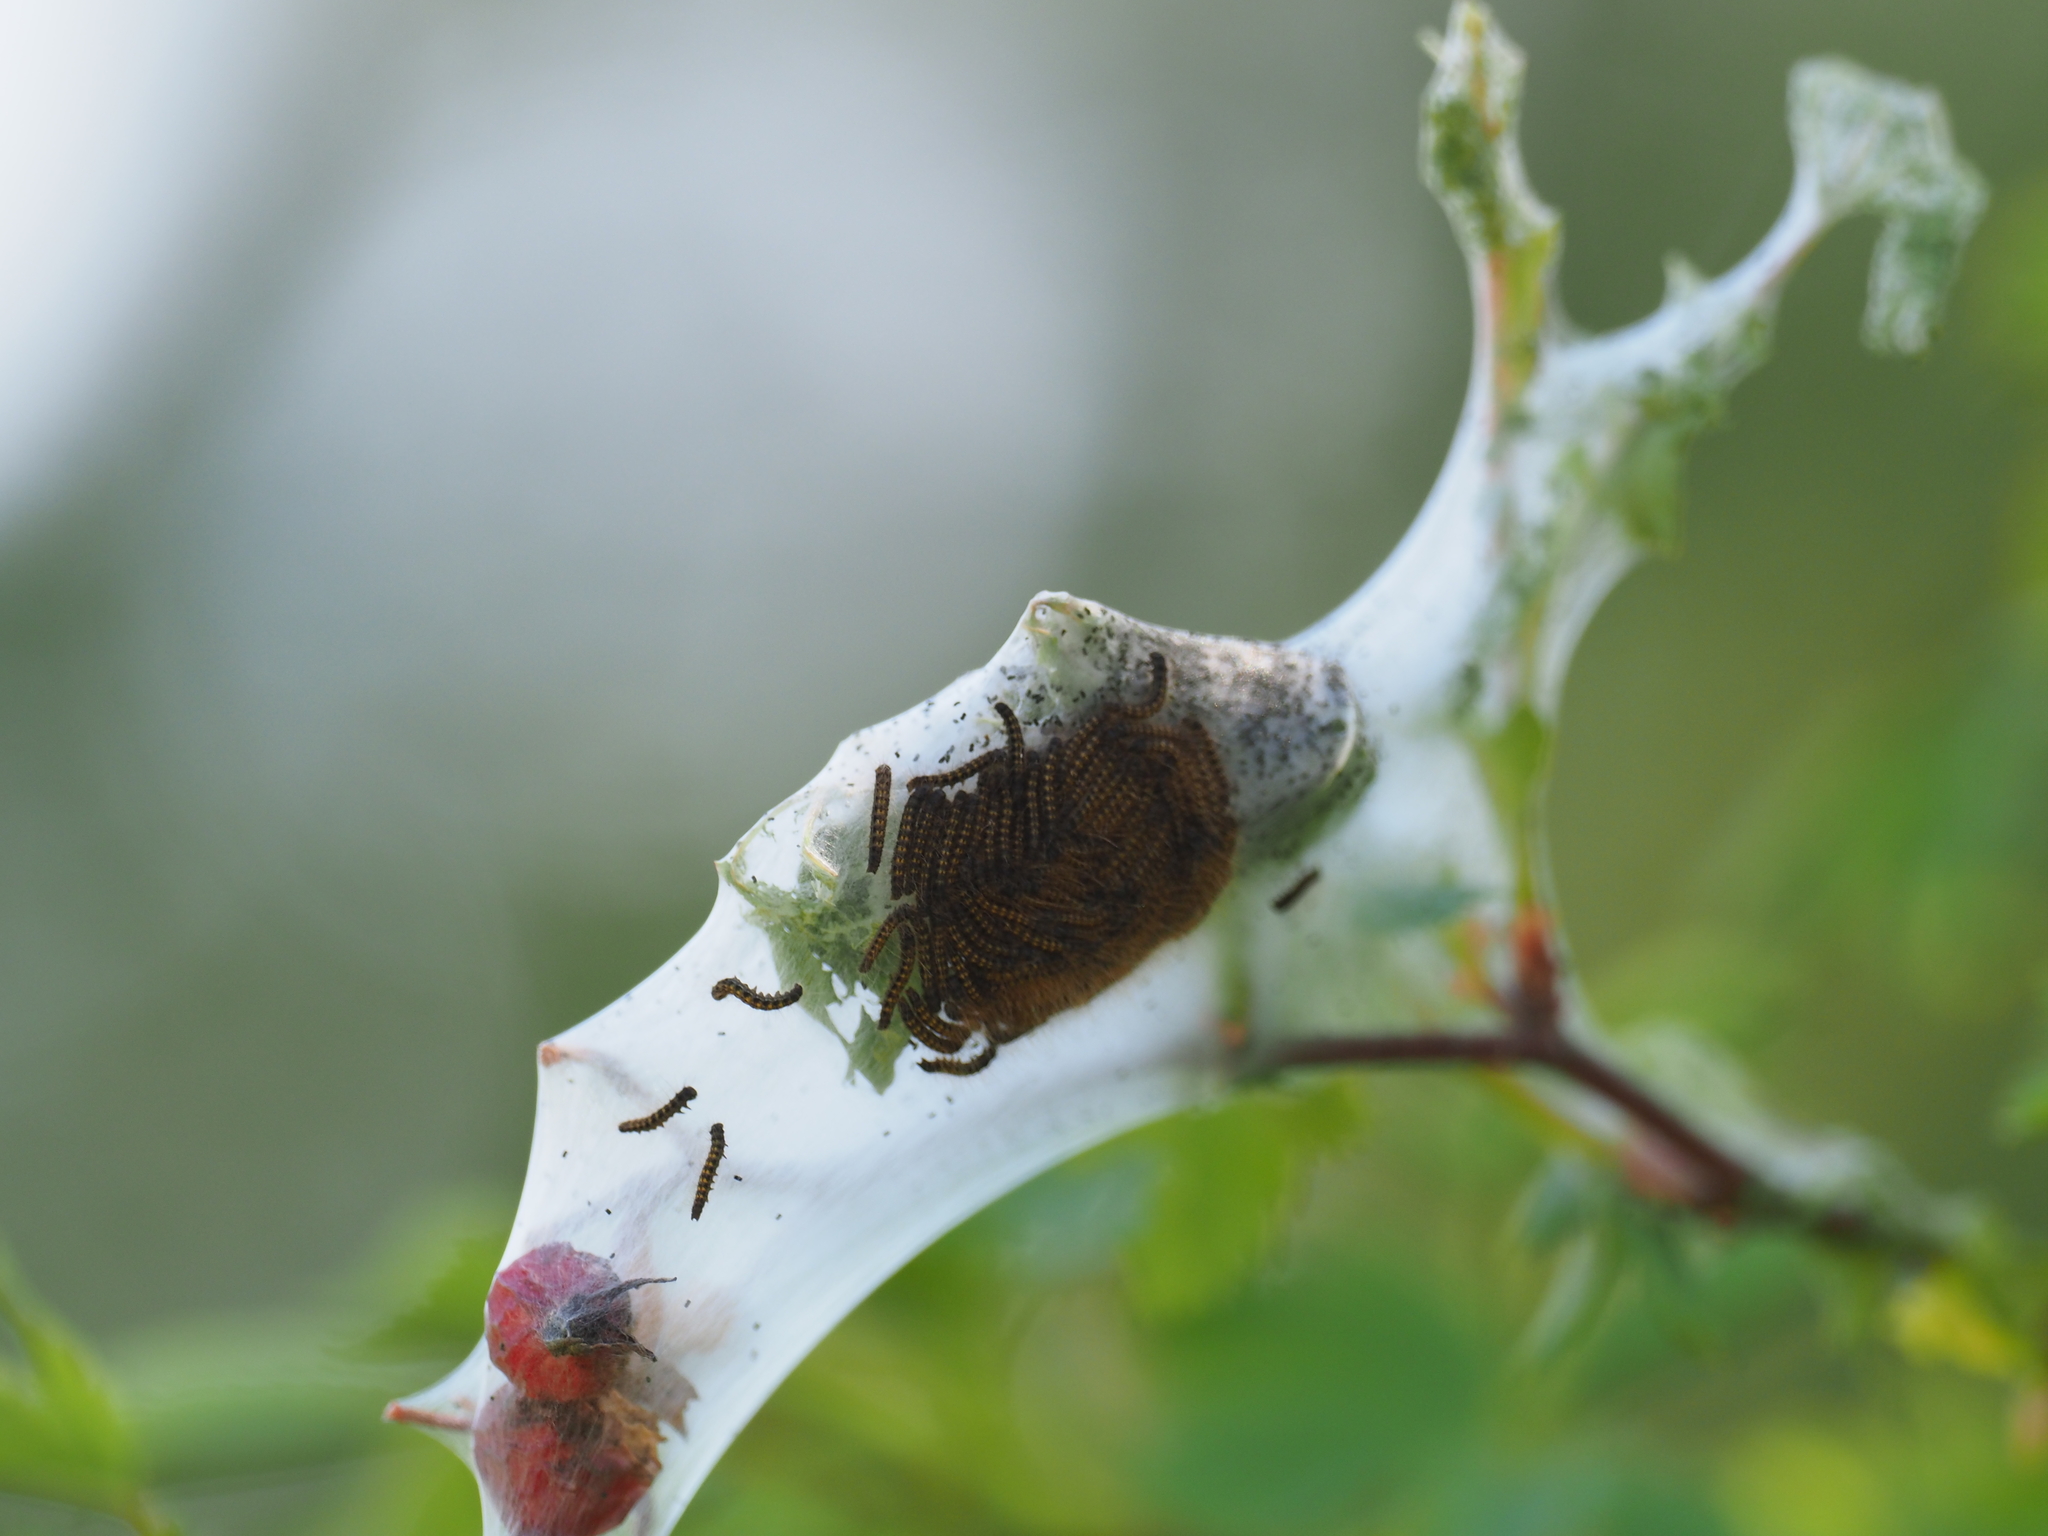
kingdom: Animalia
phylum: Arthropoda
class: Insecta
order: Lepidoptera
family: Lasiocampidae
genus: Malacosoma
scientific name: Malacosoma californica
